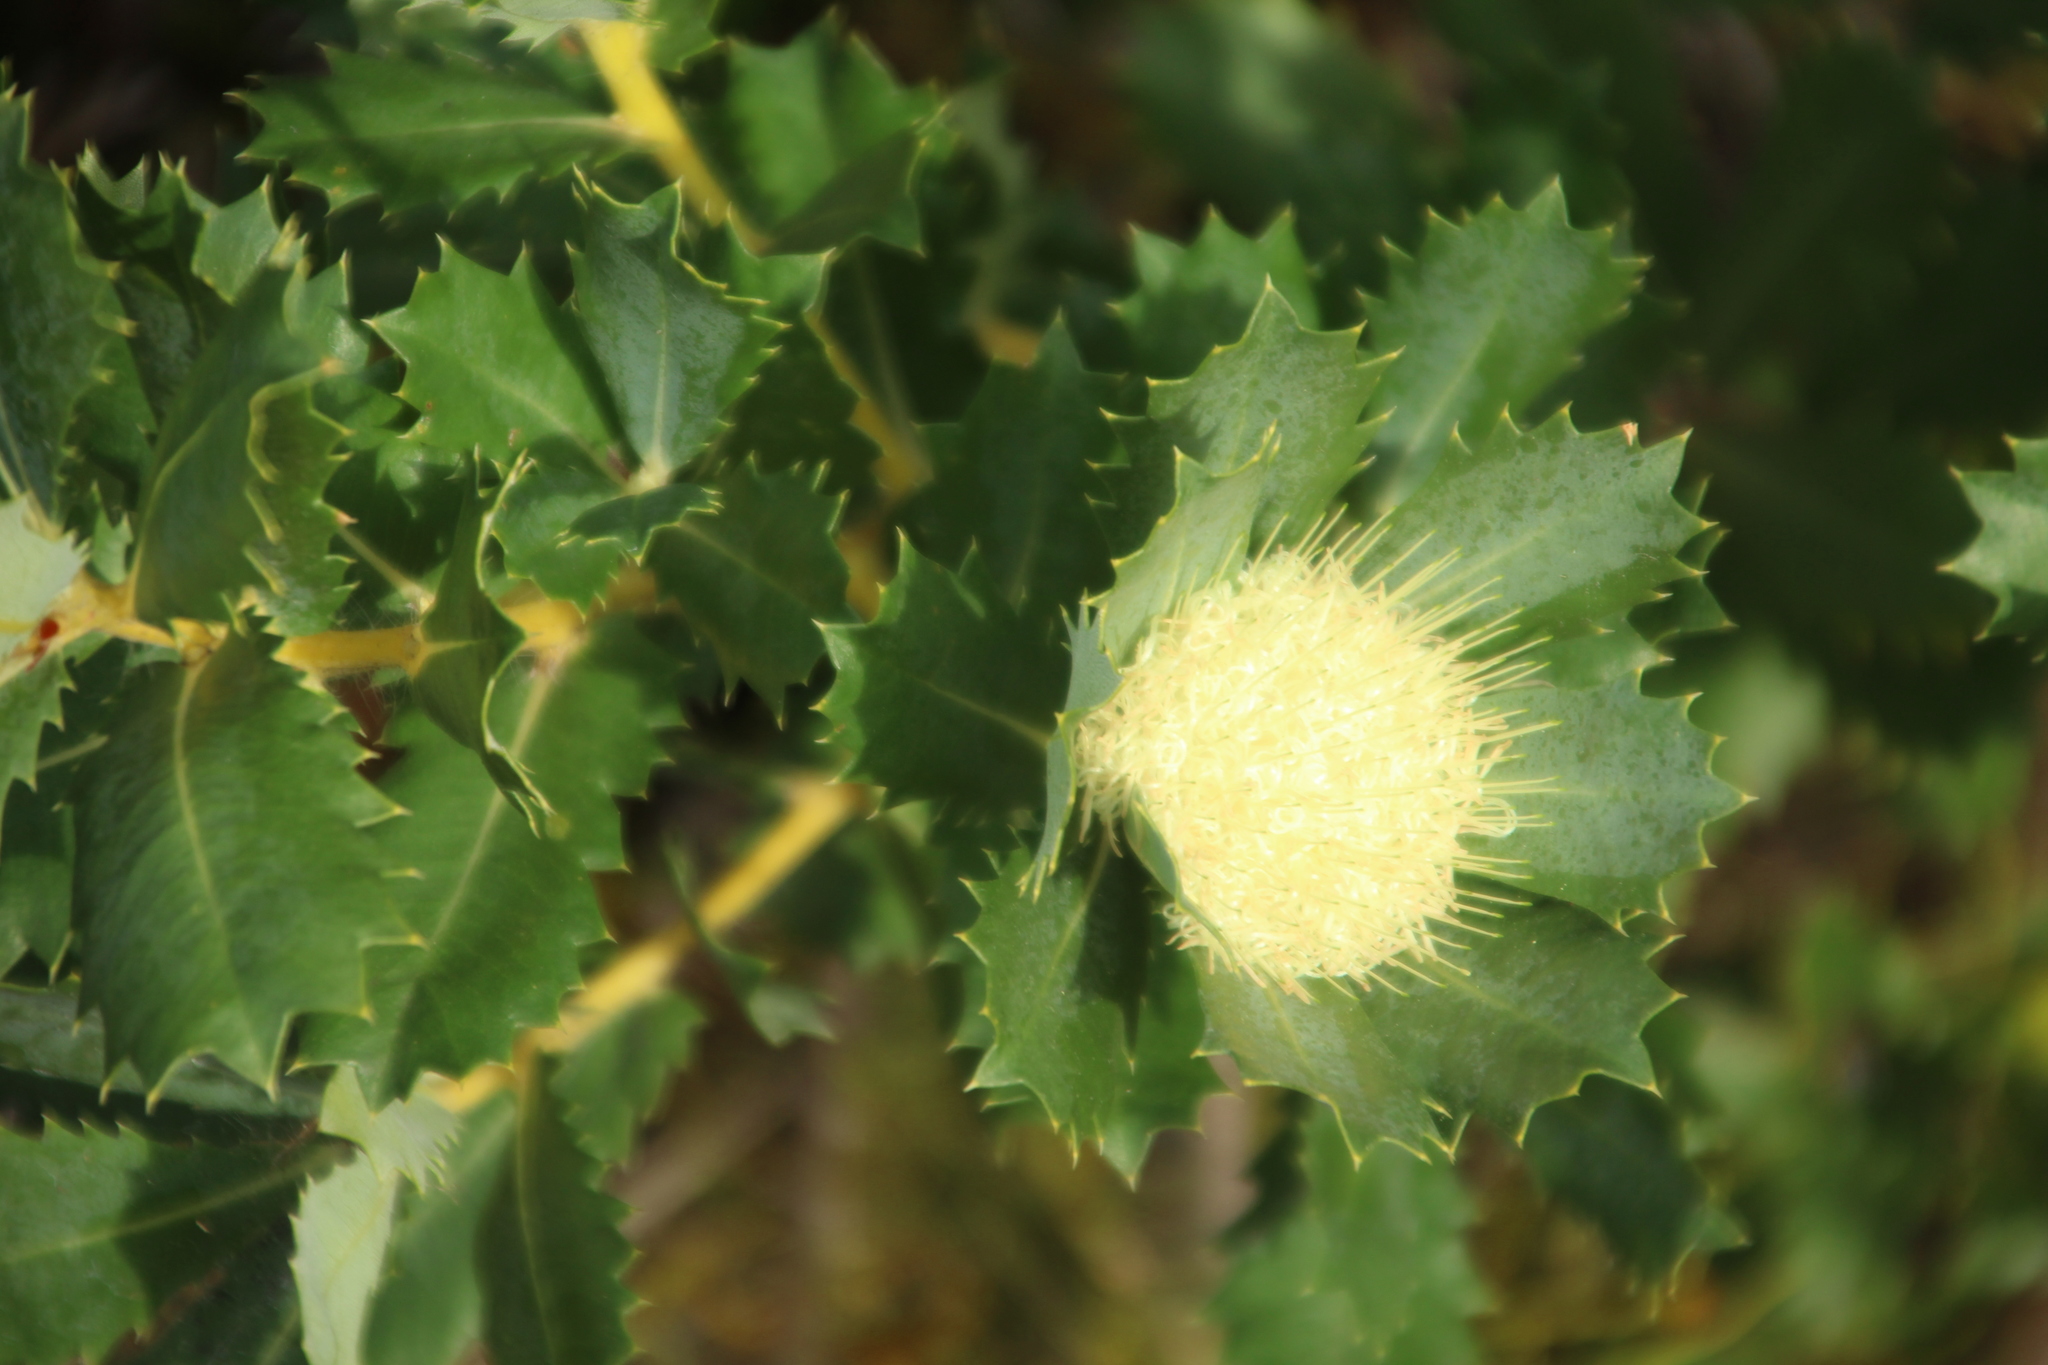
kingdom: Plantae
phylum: Tracheophyta
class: Magnoliopsida
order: Proteales
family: Proteaceae
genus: Banksia
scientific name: Banksia sessilis
